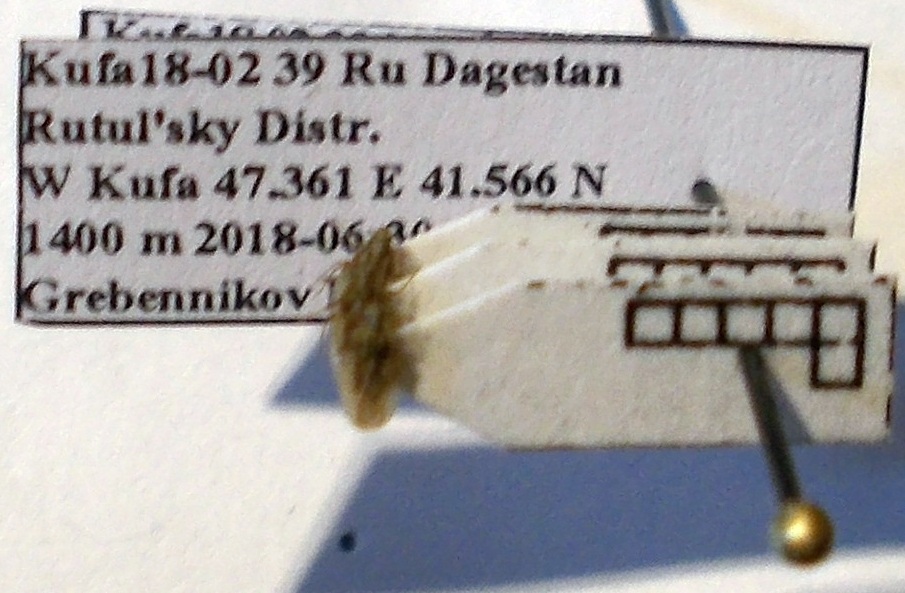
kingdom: Plantae
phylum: Tracheophyta
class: Liliopsida
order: Poales
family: Juncaceae
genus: Elasmotropis
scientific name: Elasmotropis testacea
